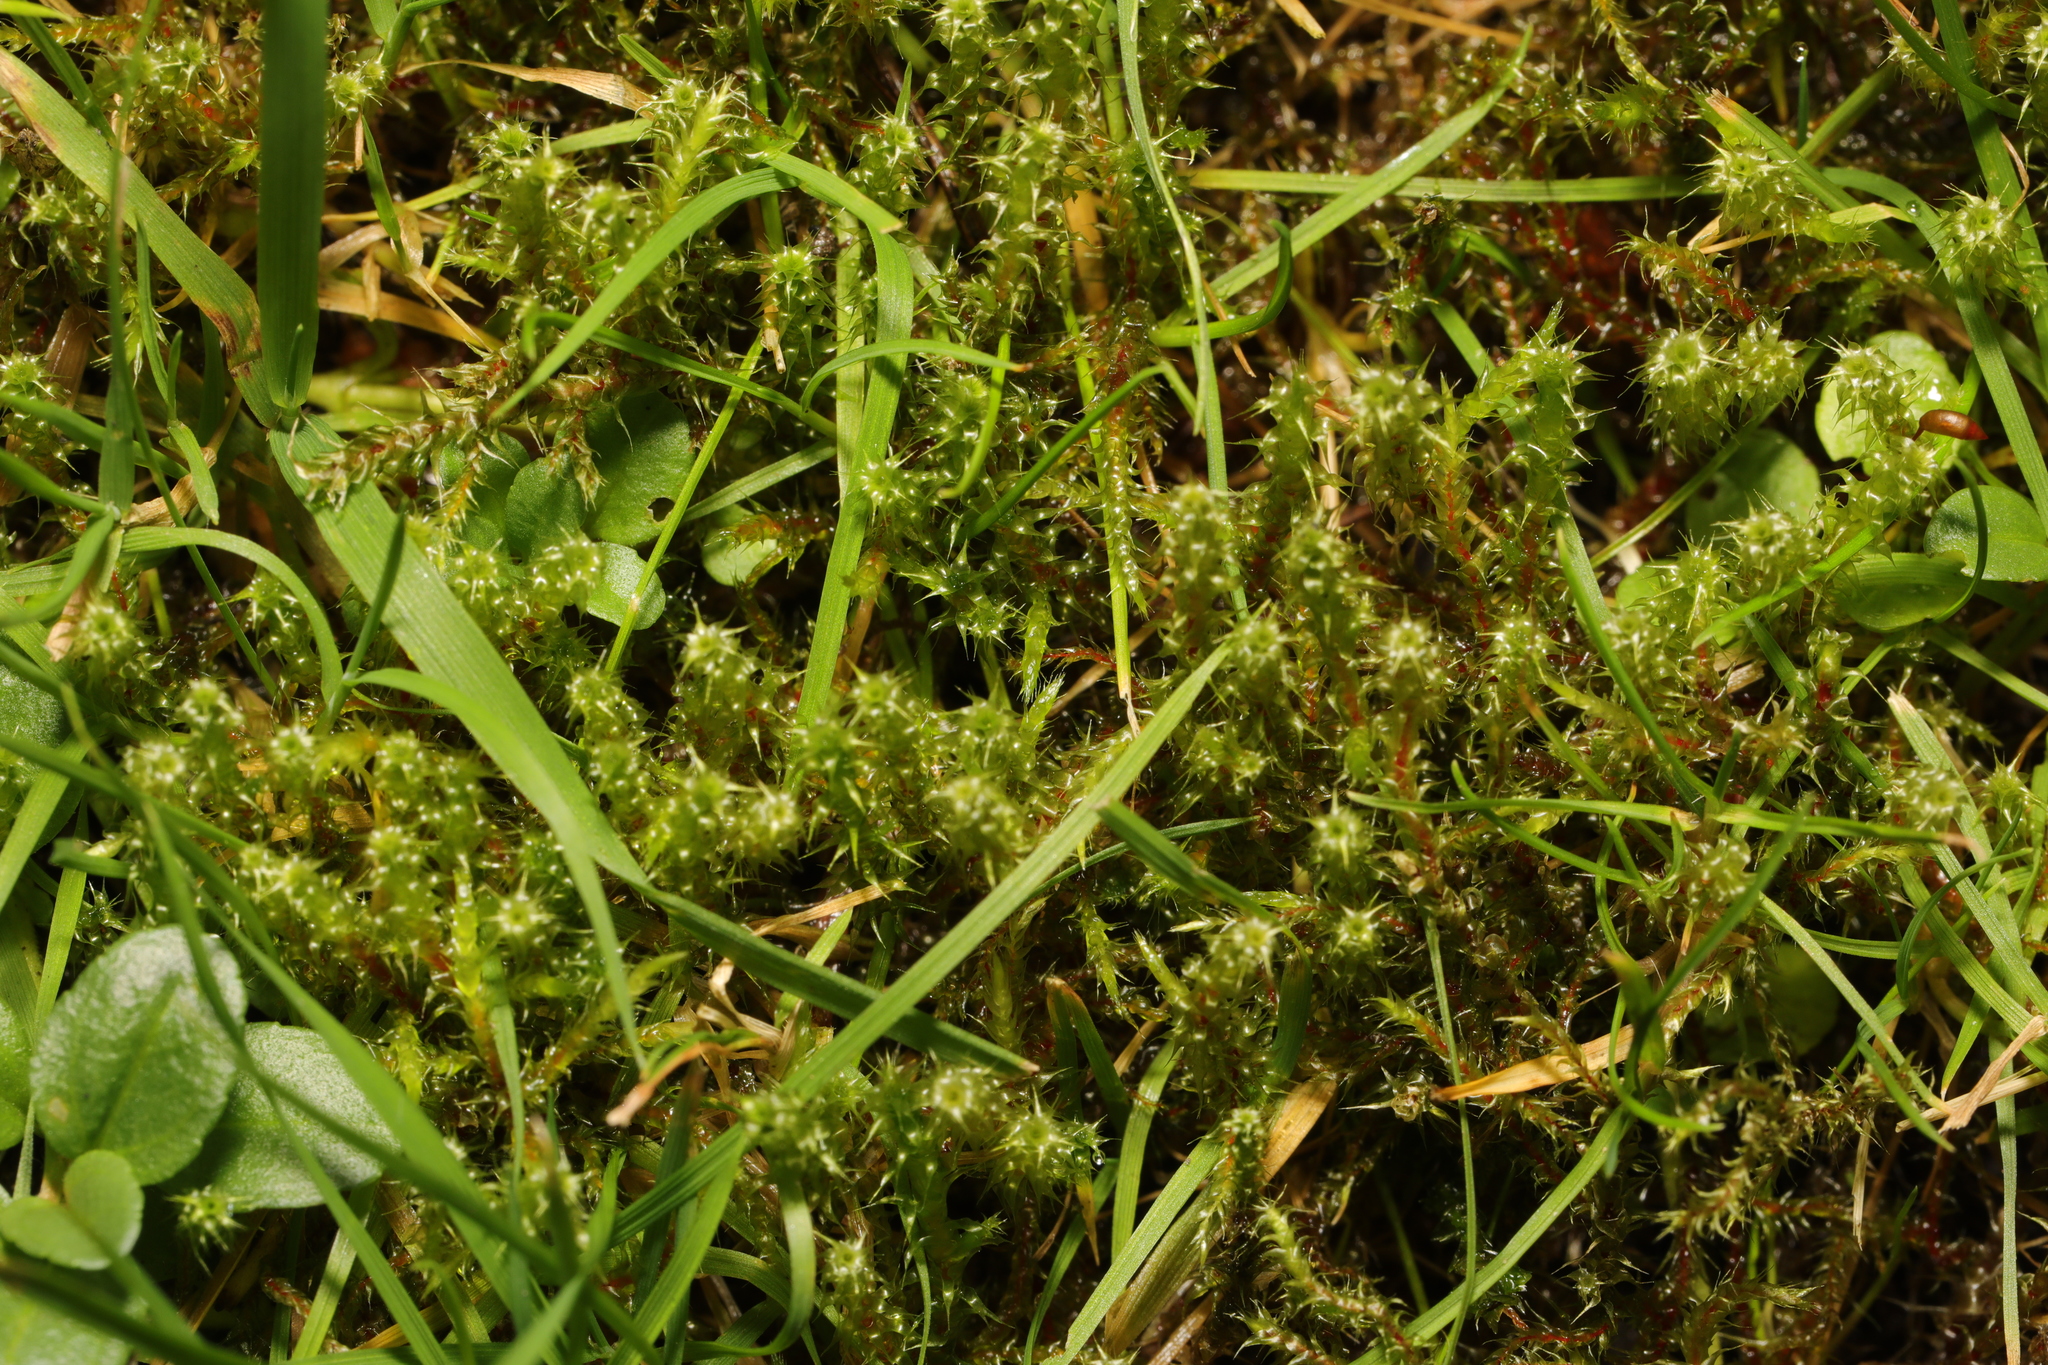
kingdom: Plantae
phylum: Bryophyta
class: Bryopsida
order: Hypnales
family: Hylocomiaceae
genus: Rhytidiadelphus
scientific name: Rhytidiadelphus squarrosus
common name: Springy turf-moss
